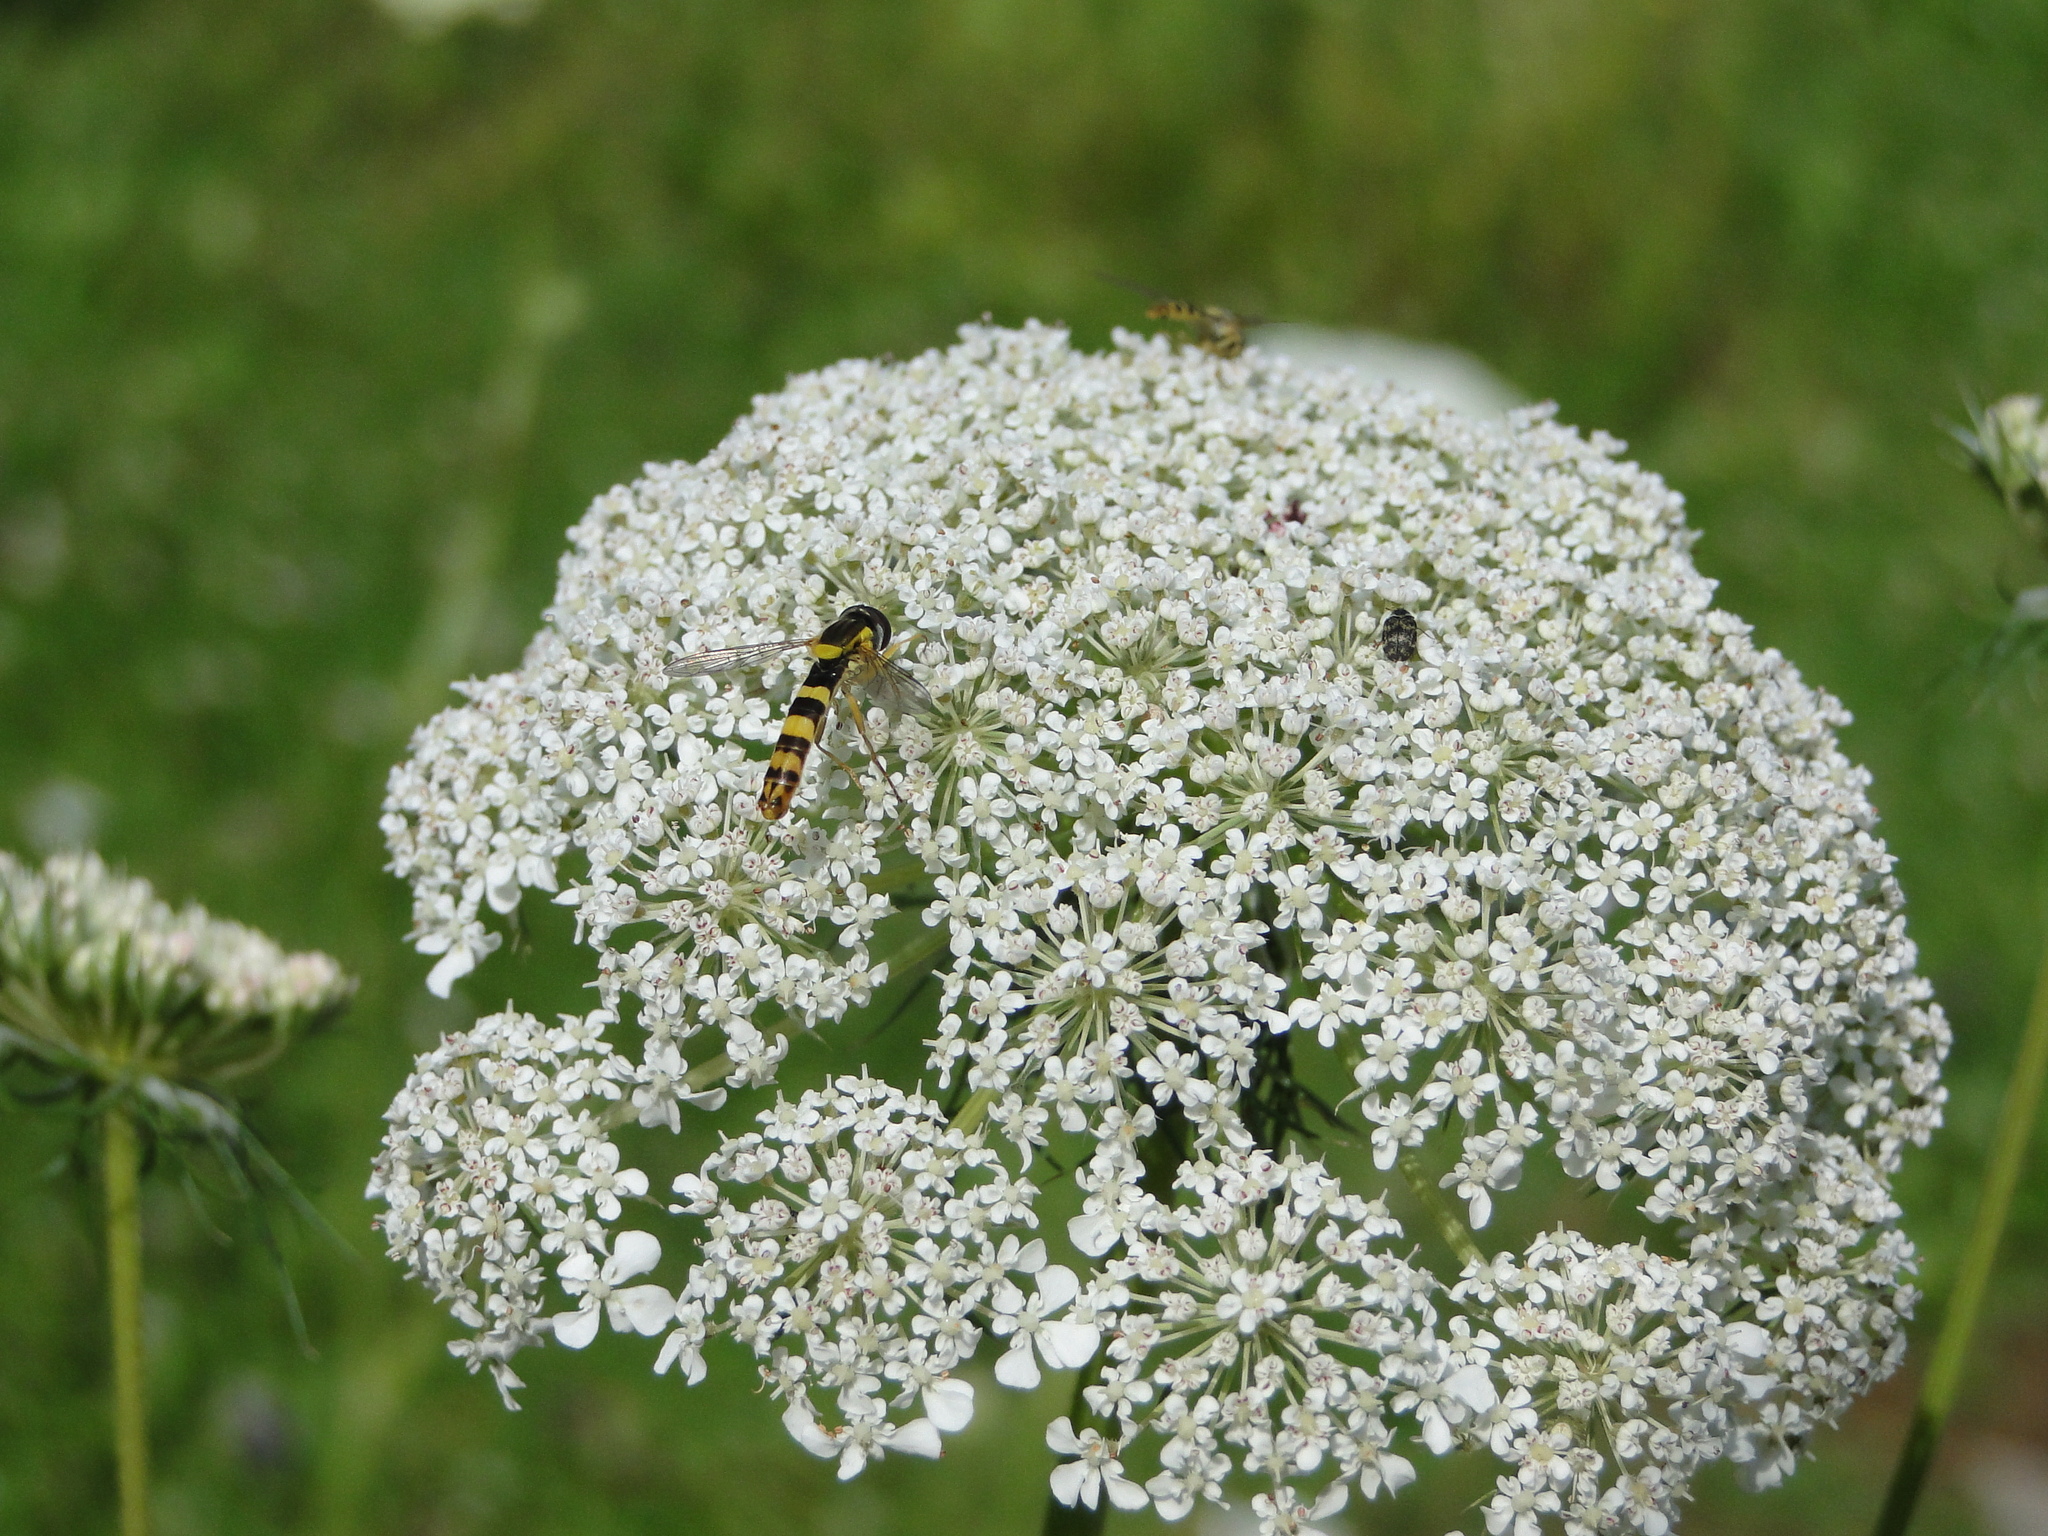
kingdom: Animalia
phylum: Arthropoda
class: Insecta
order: Diptera
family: Syrphidae
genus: Sphaerophoria
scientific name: Sphaerophoria scripta
